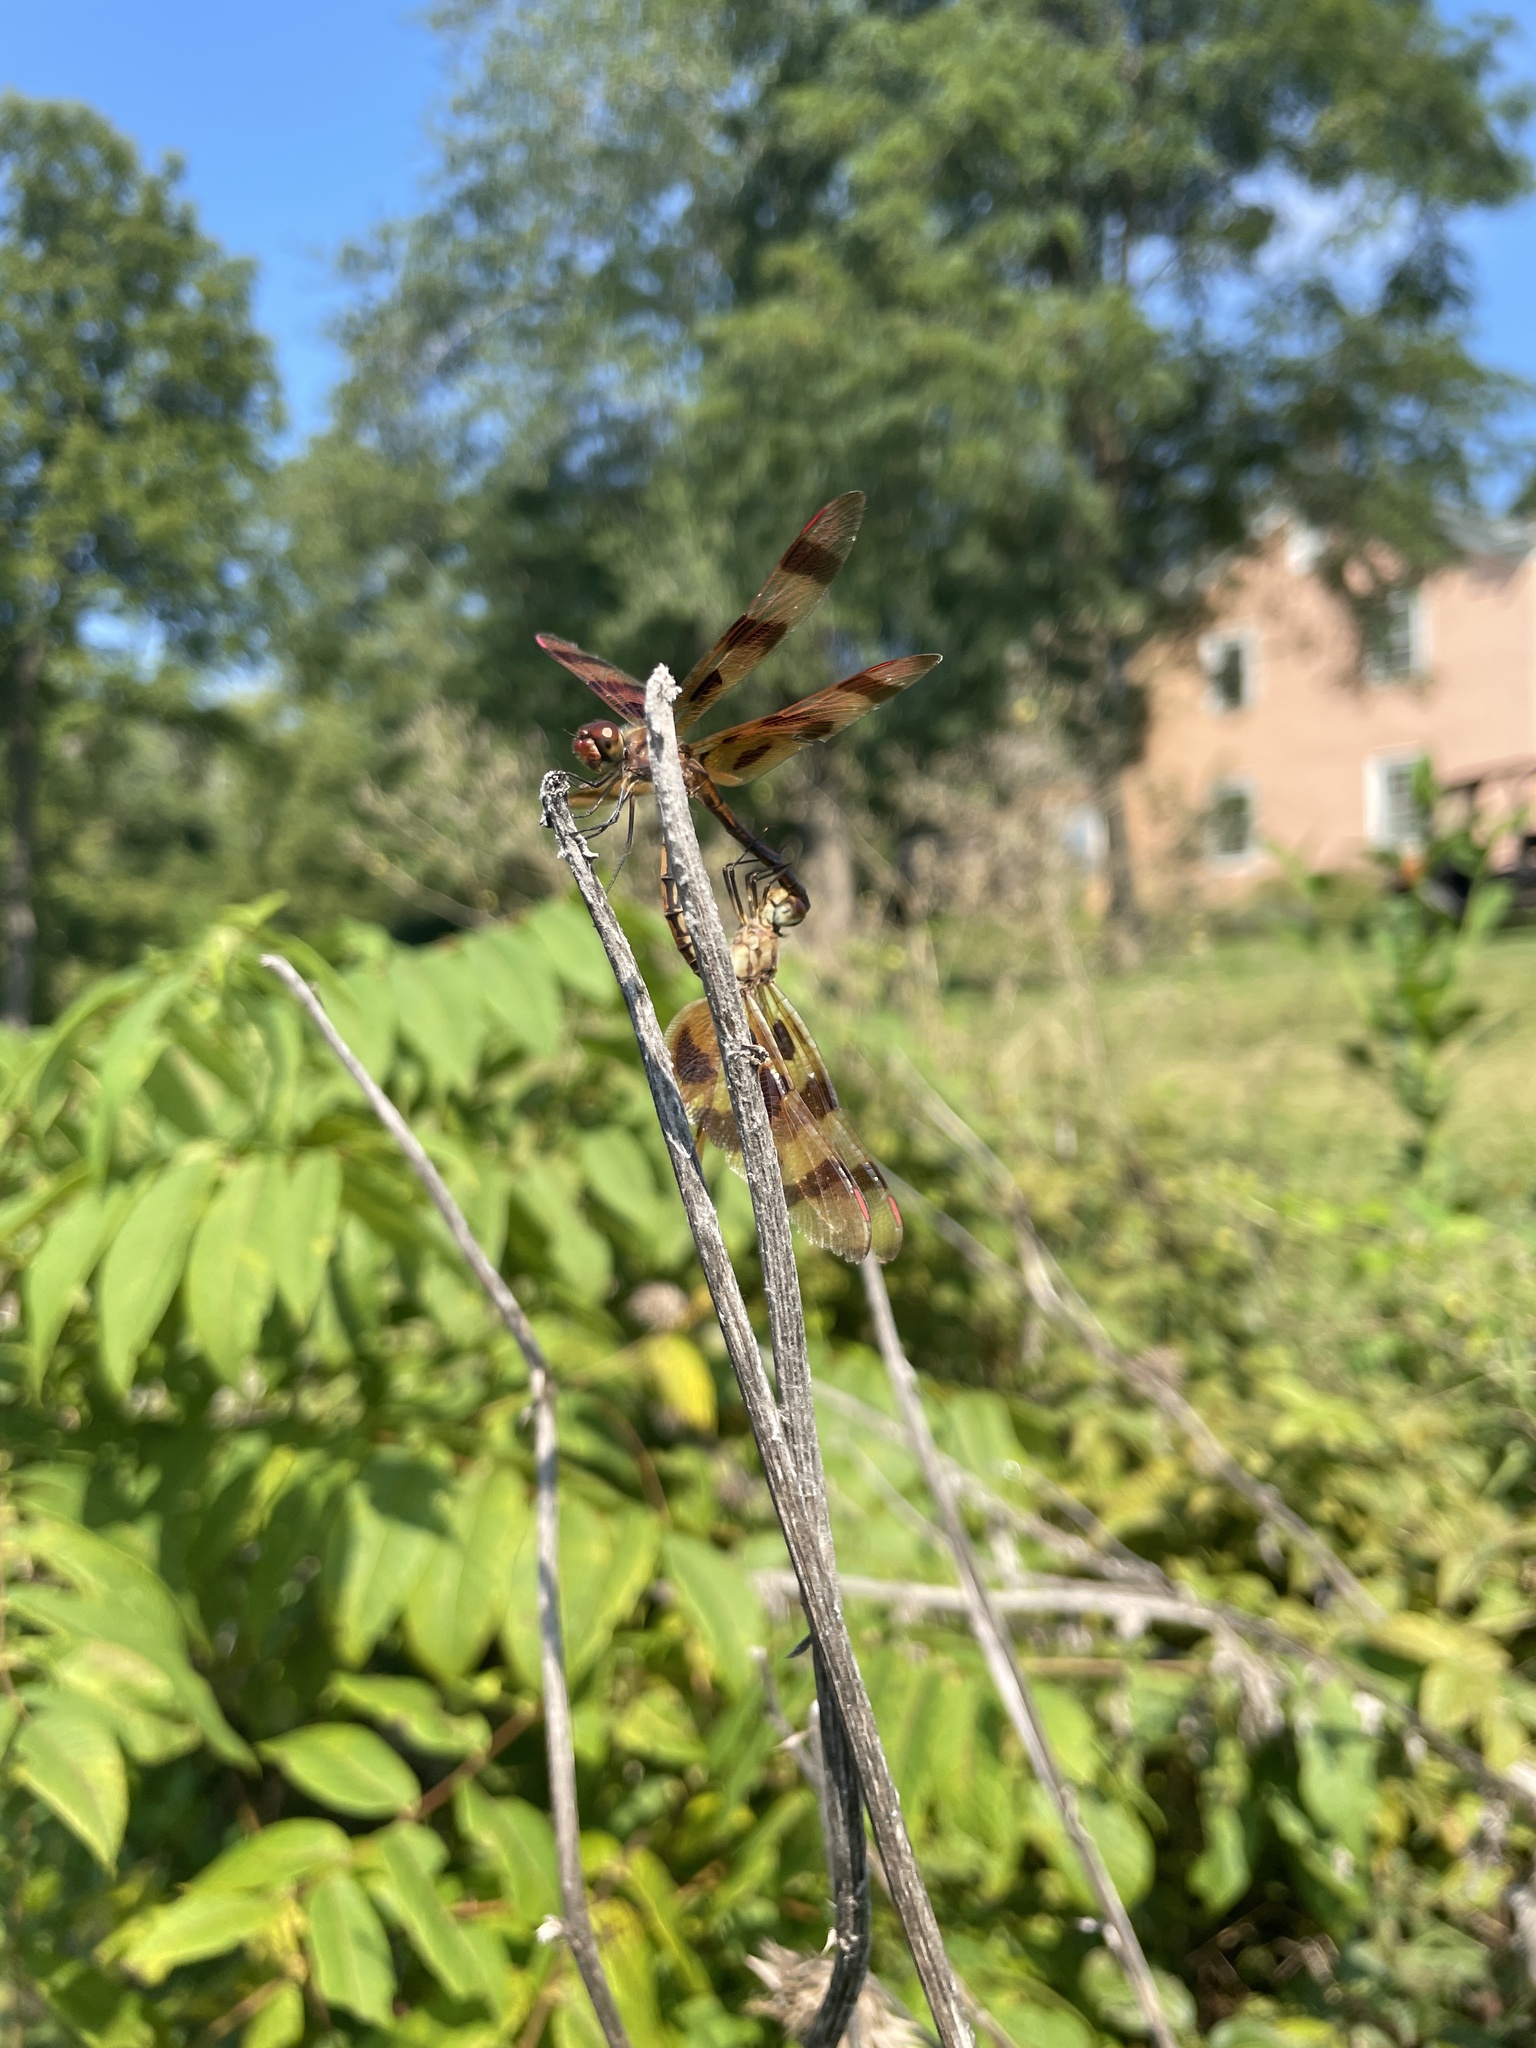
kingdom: Animalia
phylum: Arthropoda
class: Insecta
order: Odonata
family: Libellulidae
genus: Celithemis
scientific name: Celithemis eponina
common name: Halloween pennant
